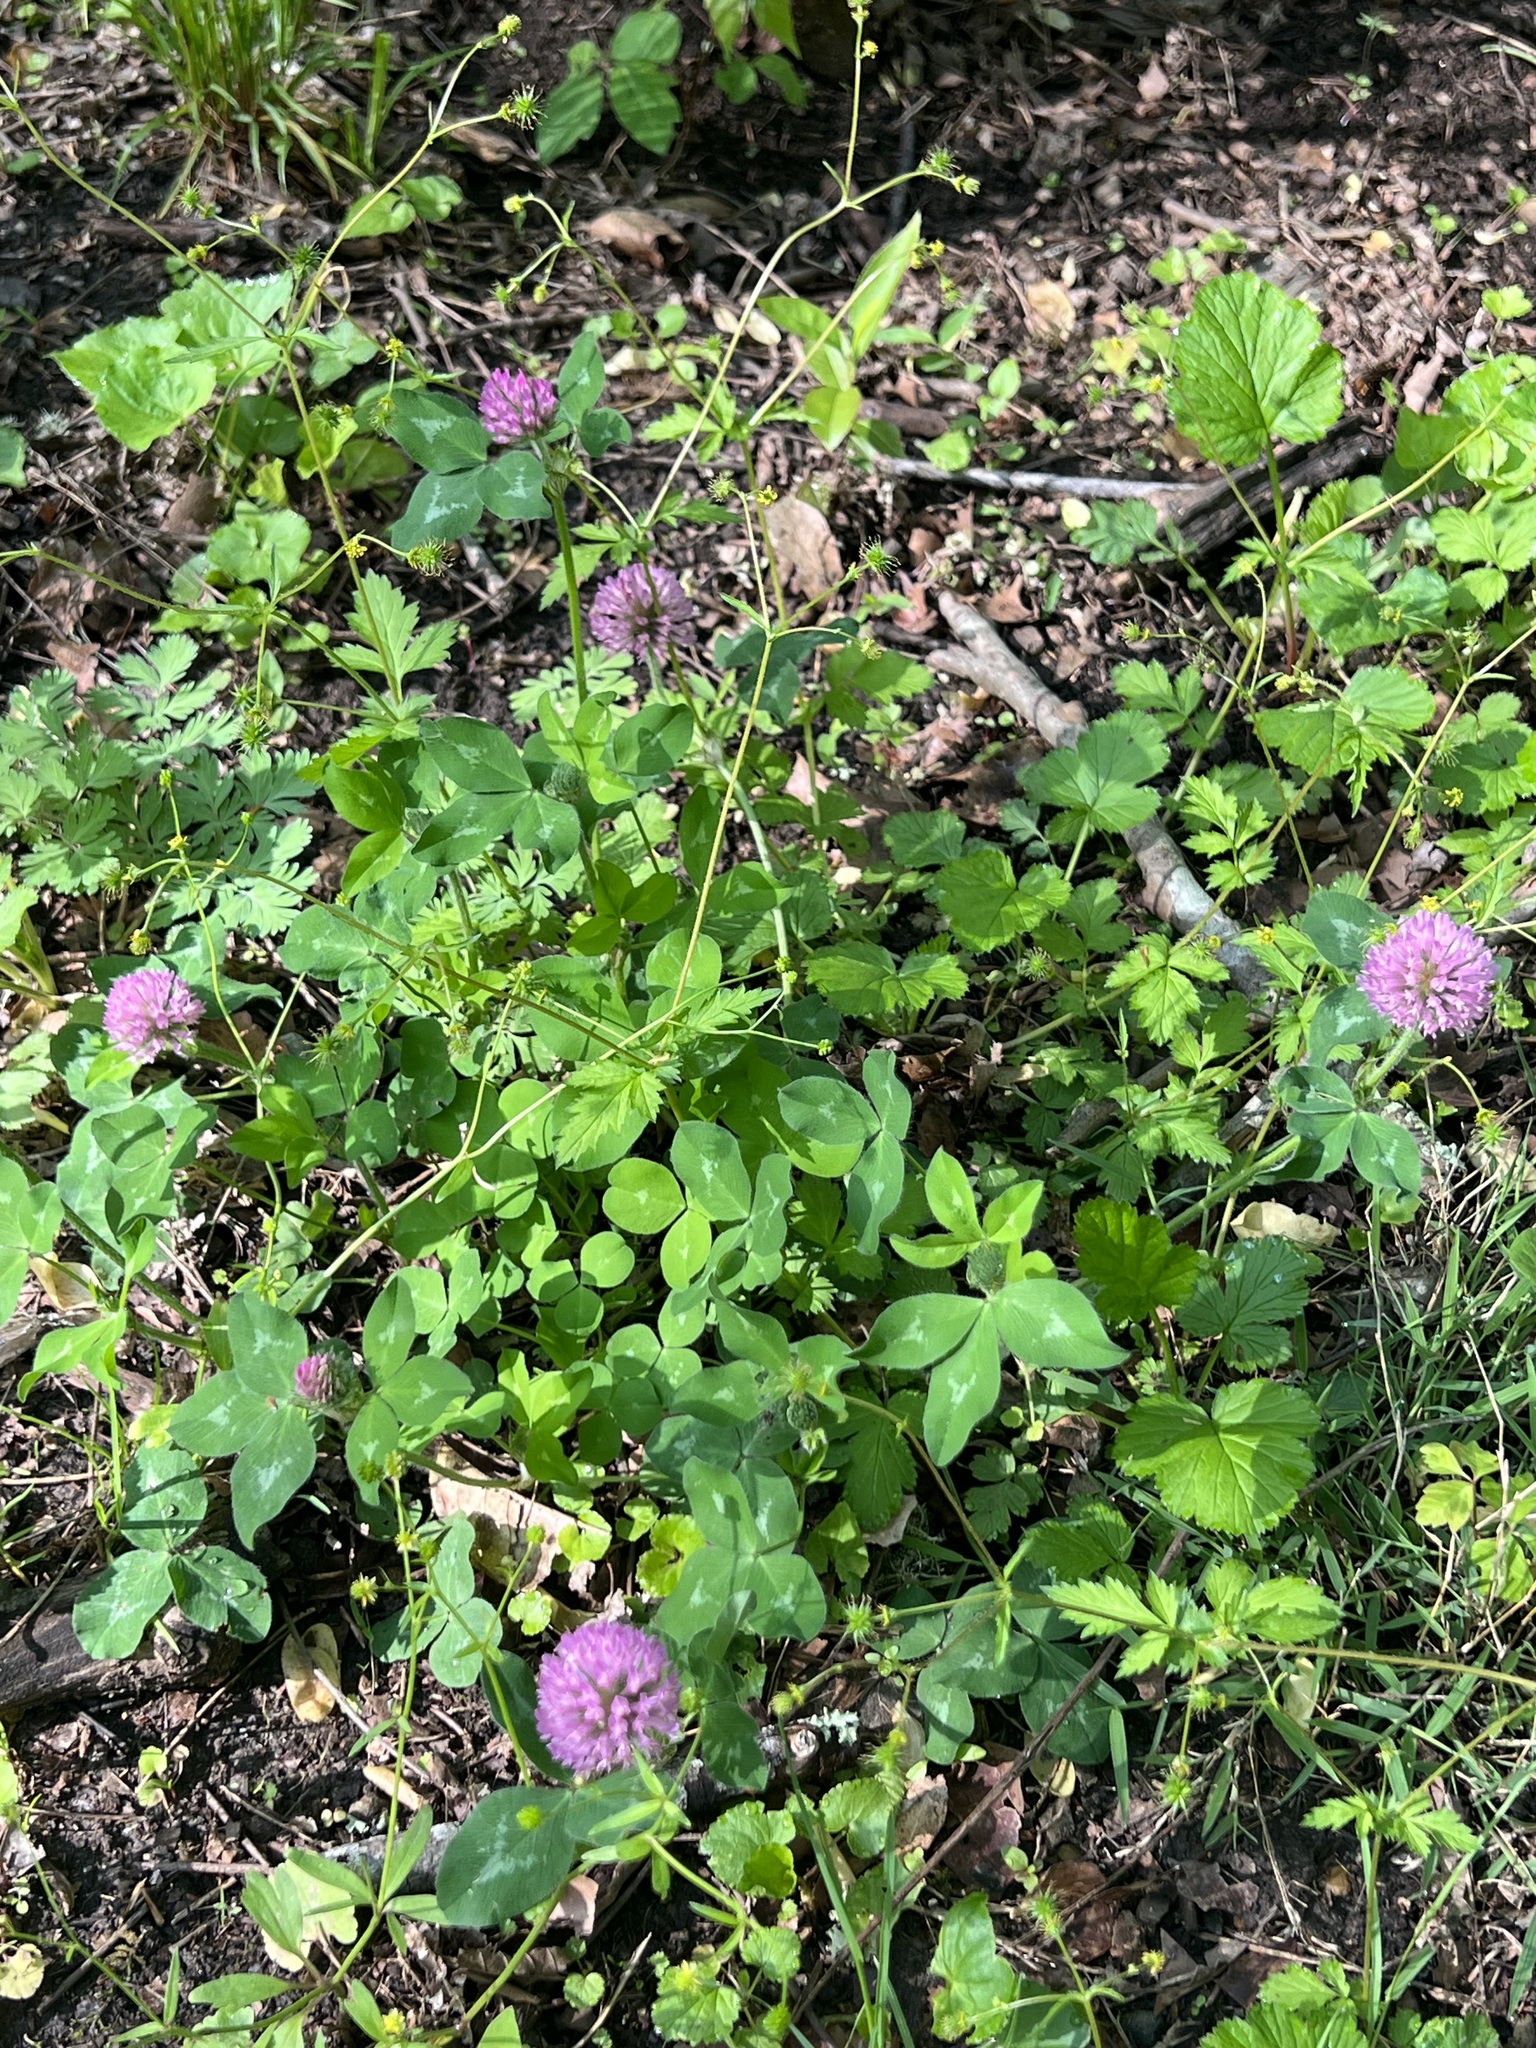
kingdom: Plantae
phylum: Tracheophyta
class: Magnoliopsida
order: Fabales
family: Fabaceae
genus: Trifolium
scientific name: Trifolium pratense
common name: Red clover
